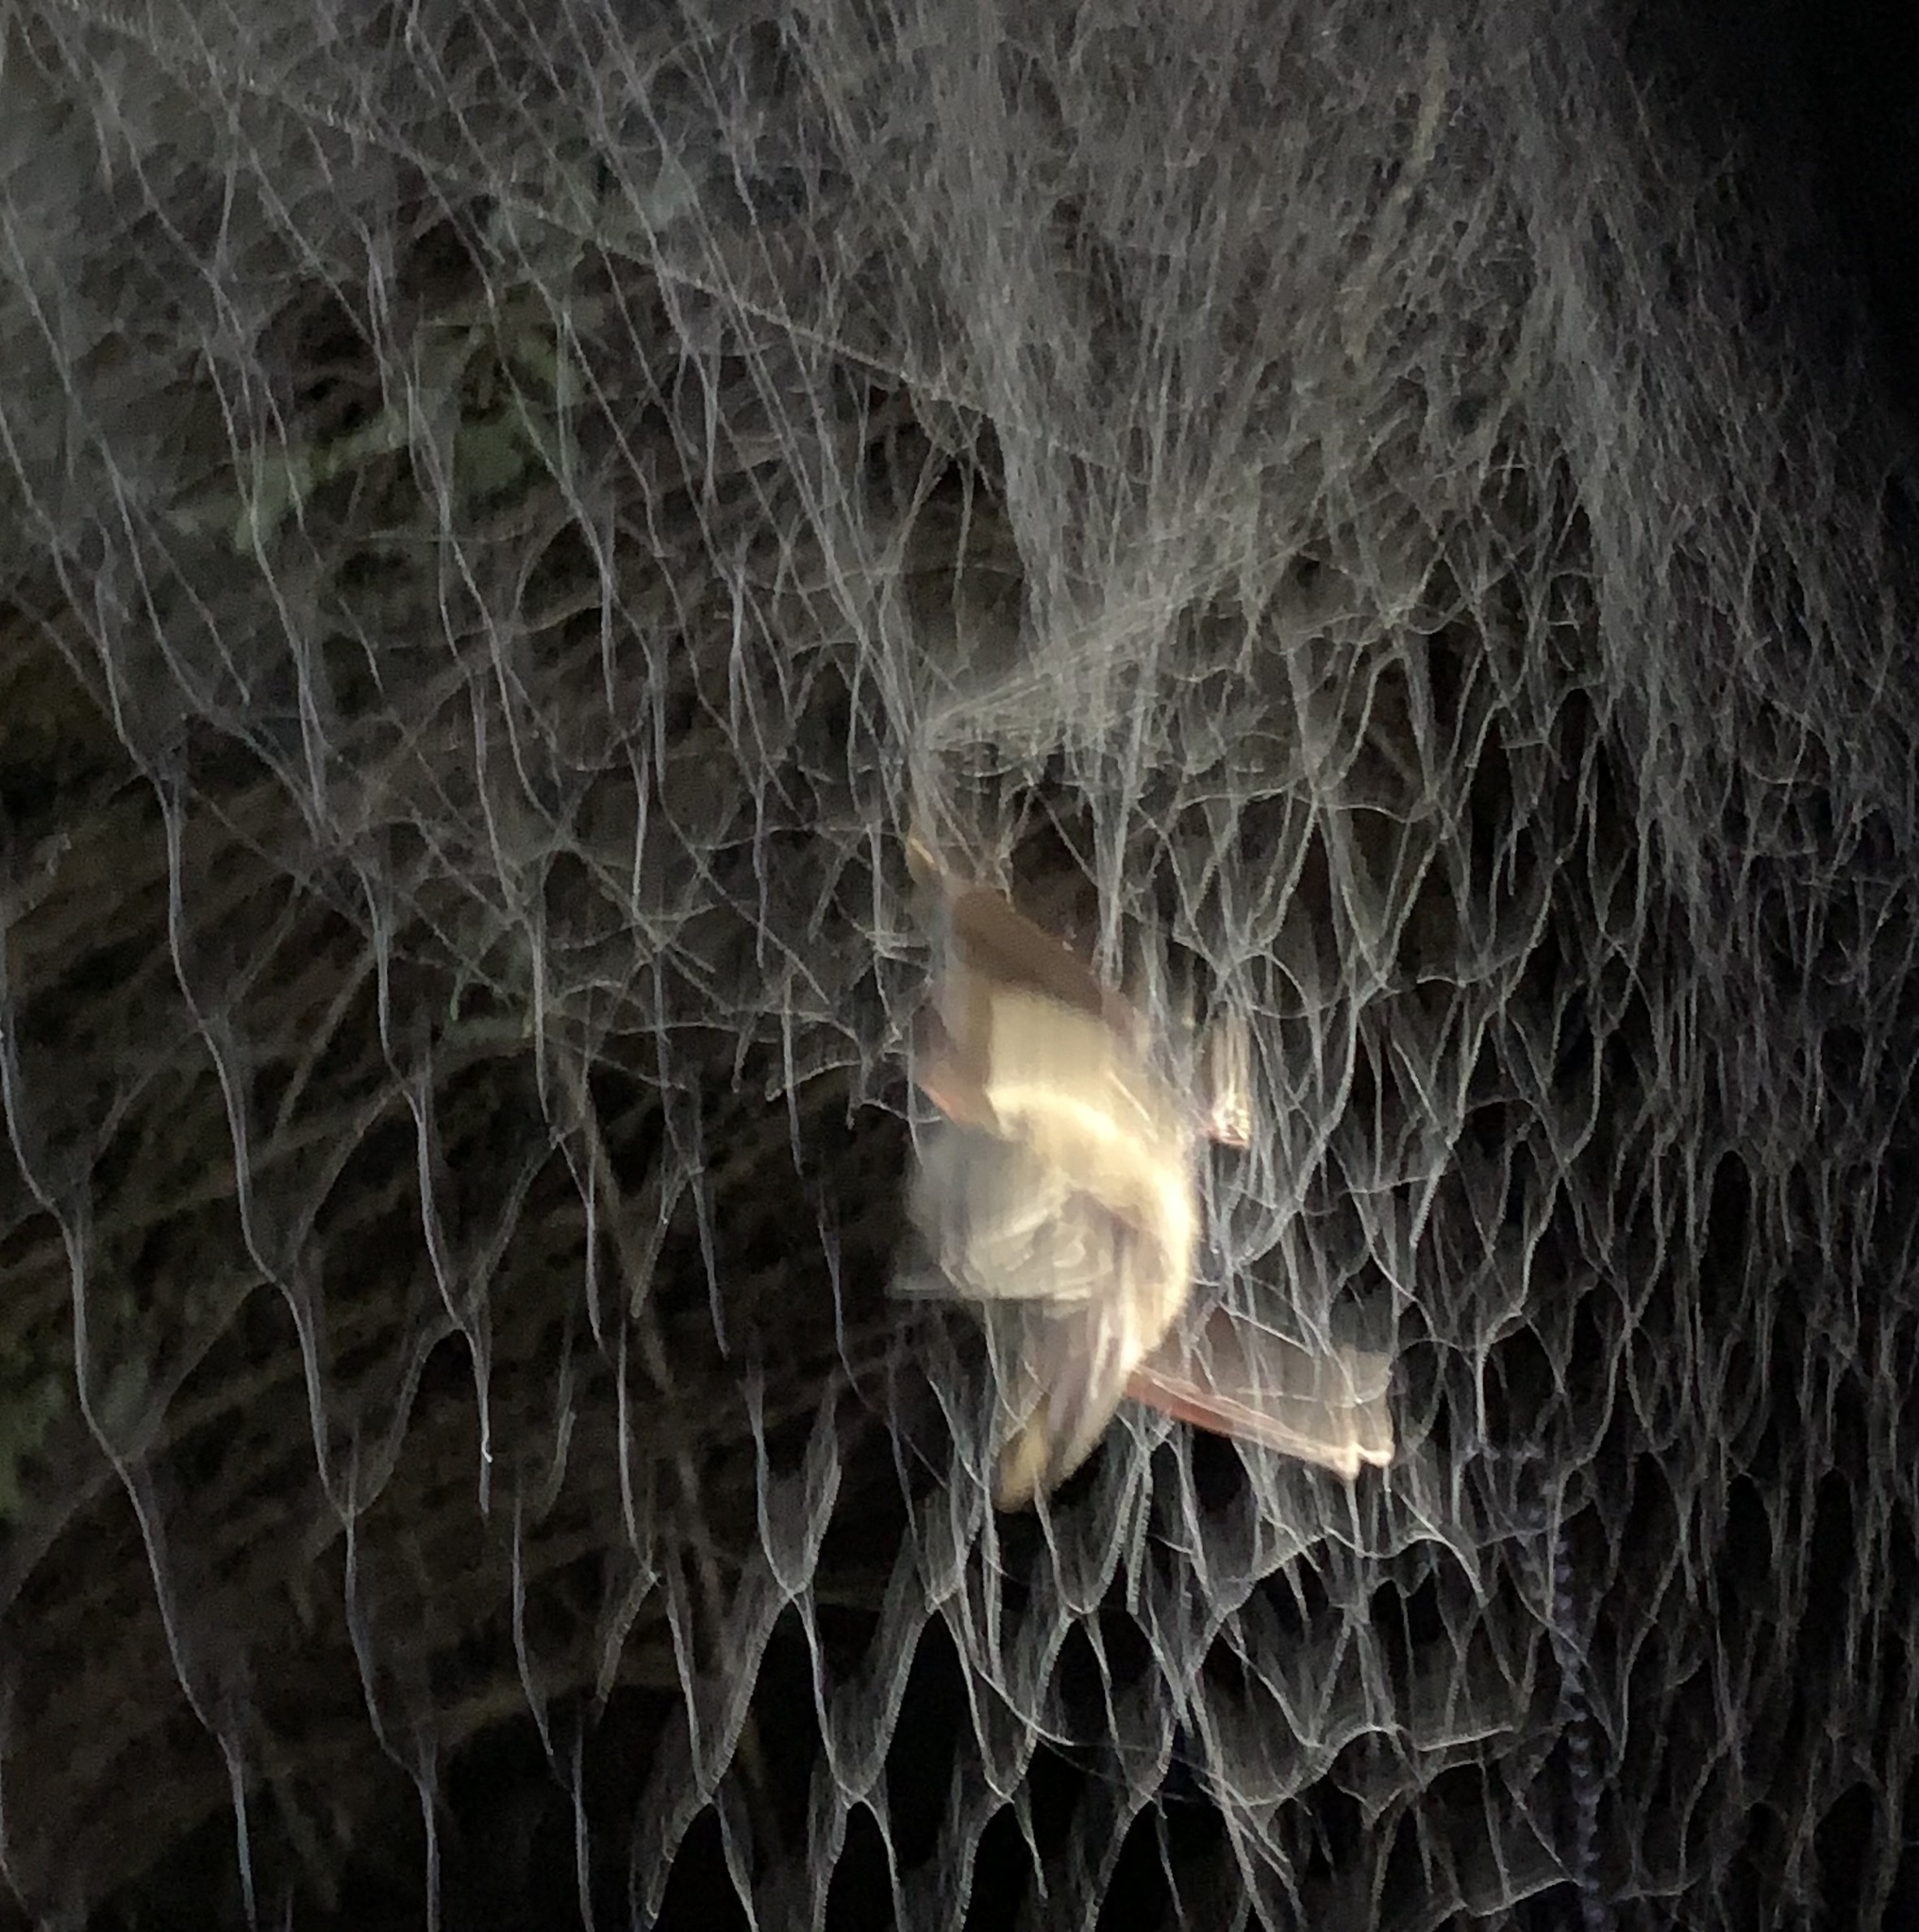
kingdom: Animalia
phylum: Chordata
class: Mammalia
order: Chiroptera
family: Vespertilionidae
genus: Corynorhinus
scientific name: Corynorhinus townsendii
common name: Townsend's big-eared bat
